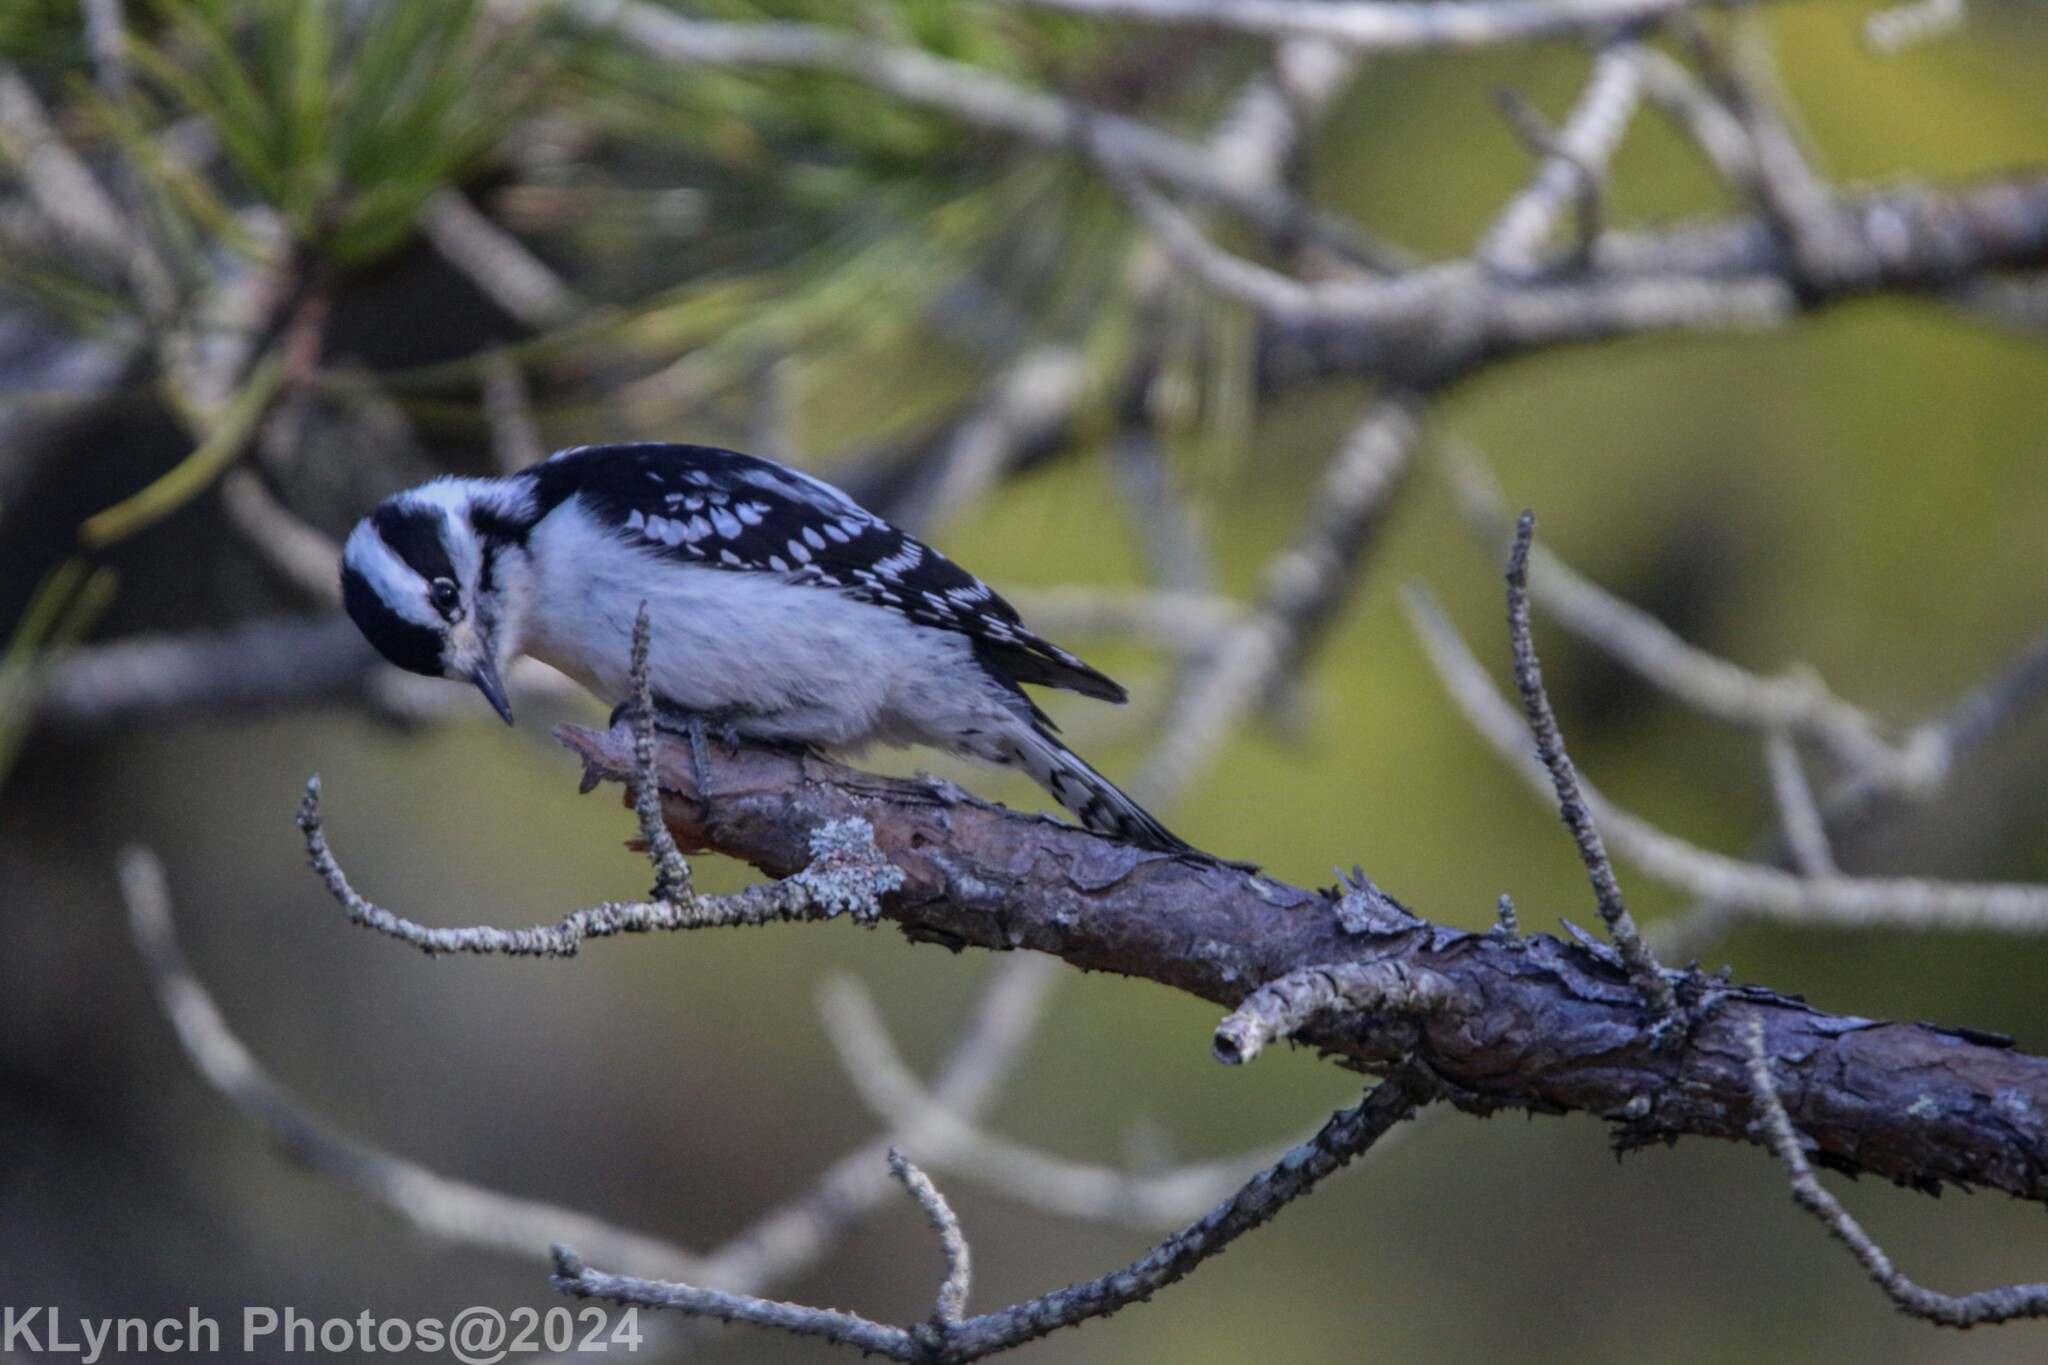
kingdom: Animalia
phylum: Chordata
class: Aves
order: Piciformes
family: Picidae
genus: Dryobates
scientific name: Dryobates pubescens
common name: Downy woodpecker
